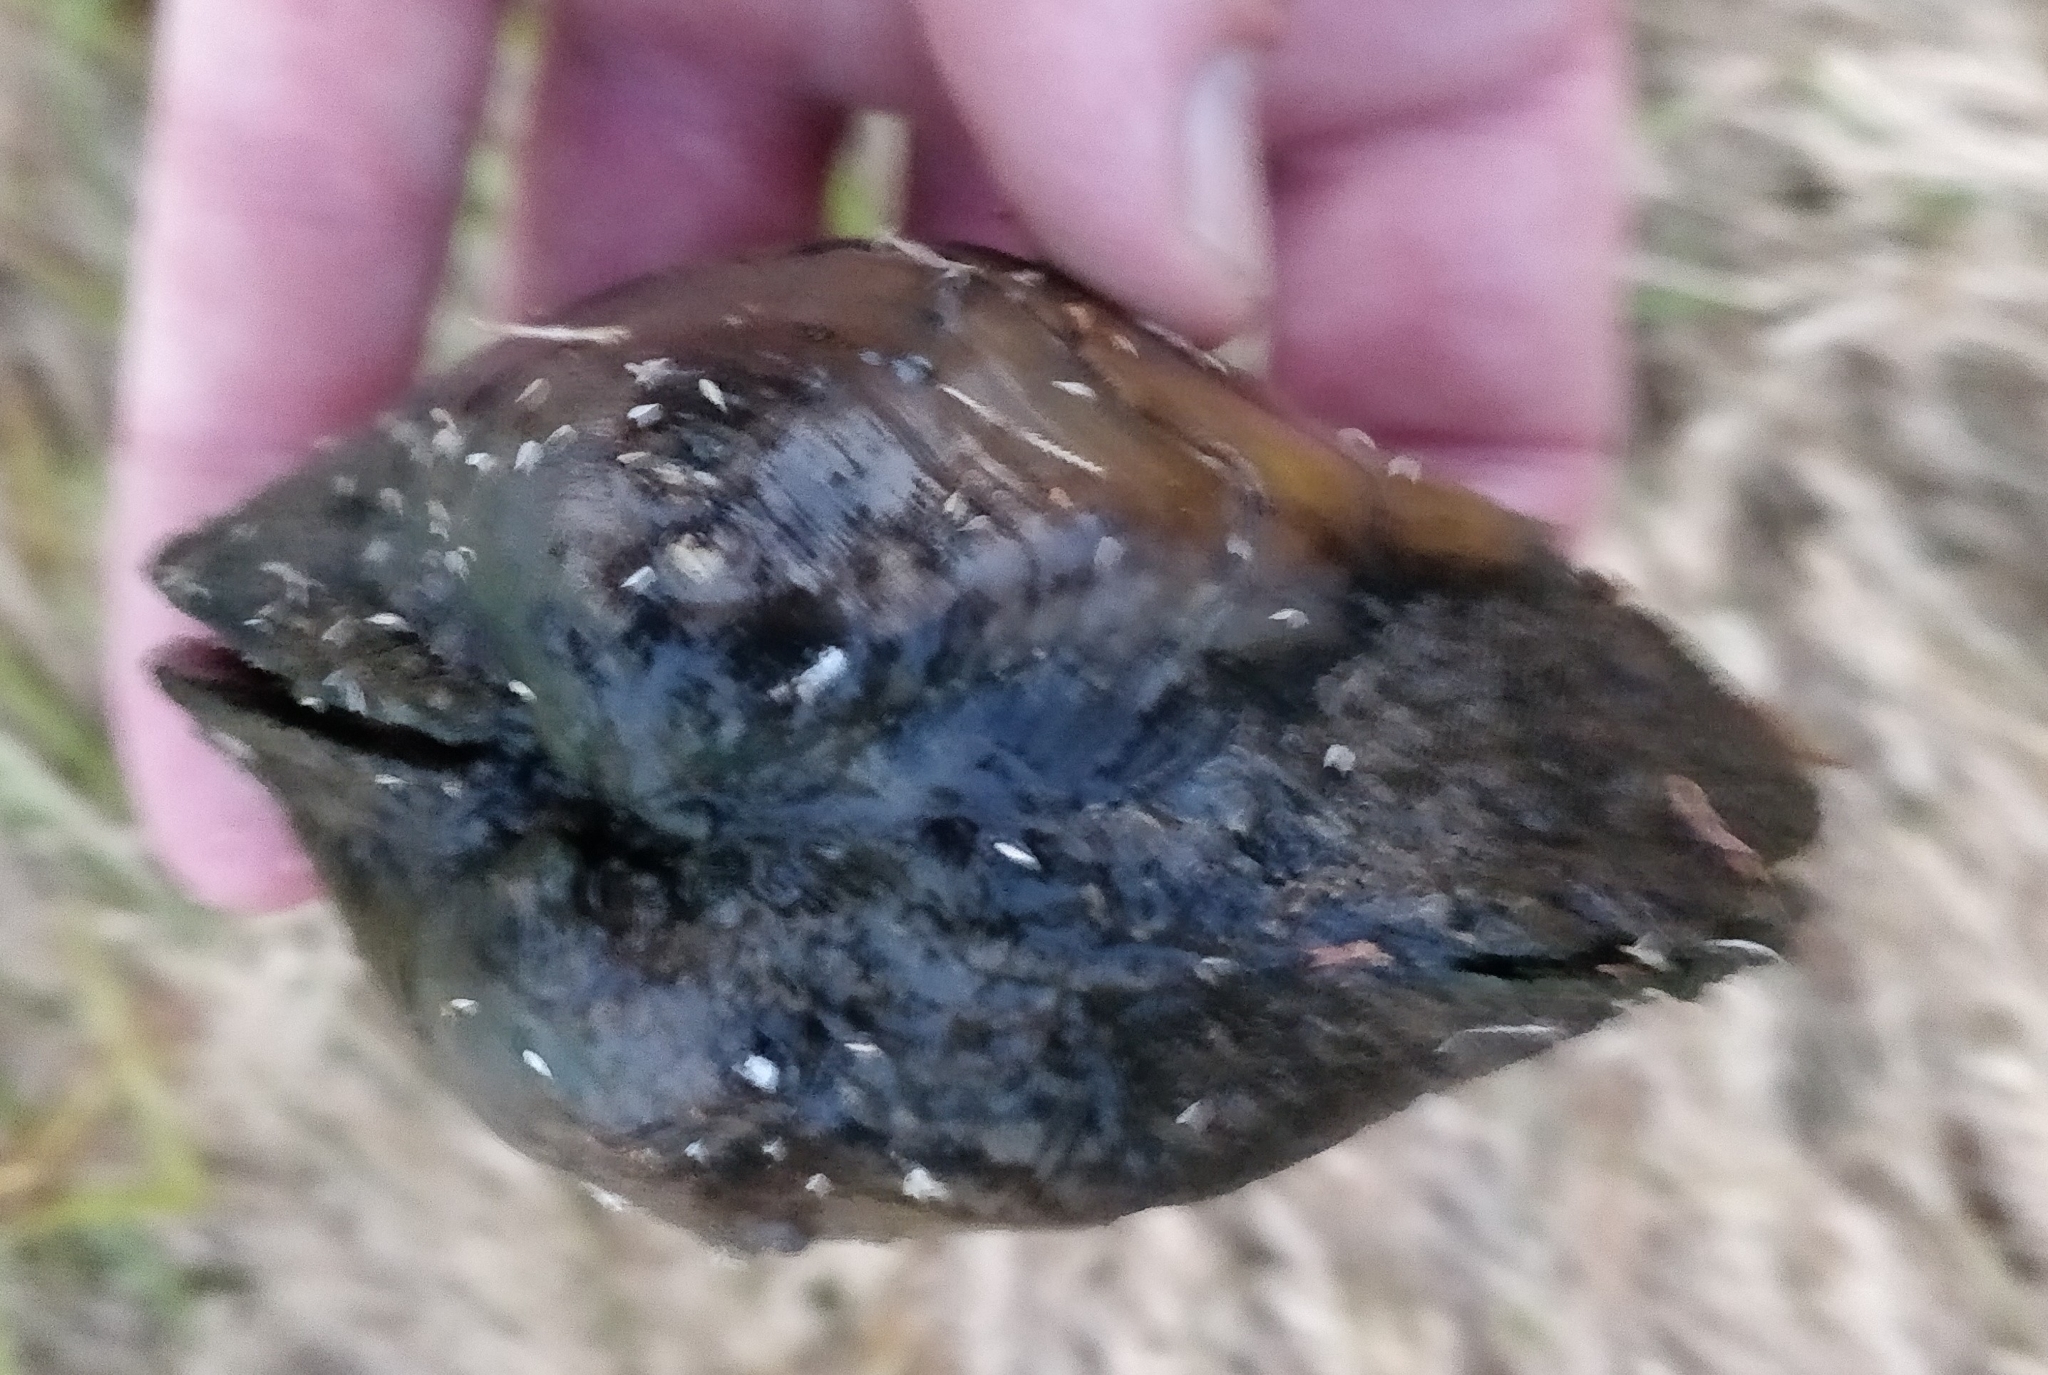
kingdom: Animalia
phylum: Mollusca
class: Bivalvia
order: Unionida
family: Unionidae
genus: Quadrula
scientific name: Quadrula quadrula
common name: Mapleleaf
